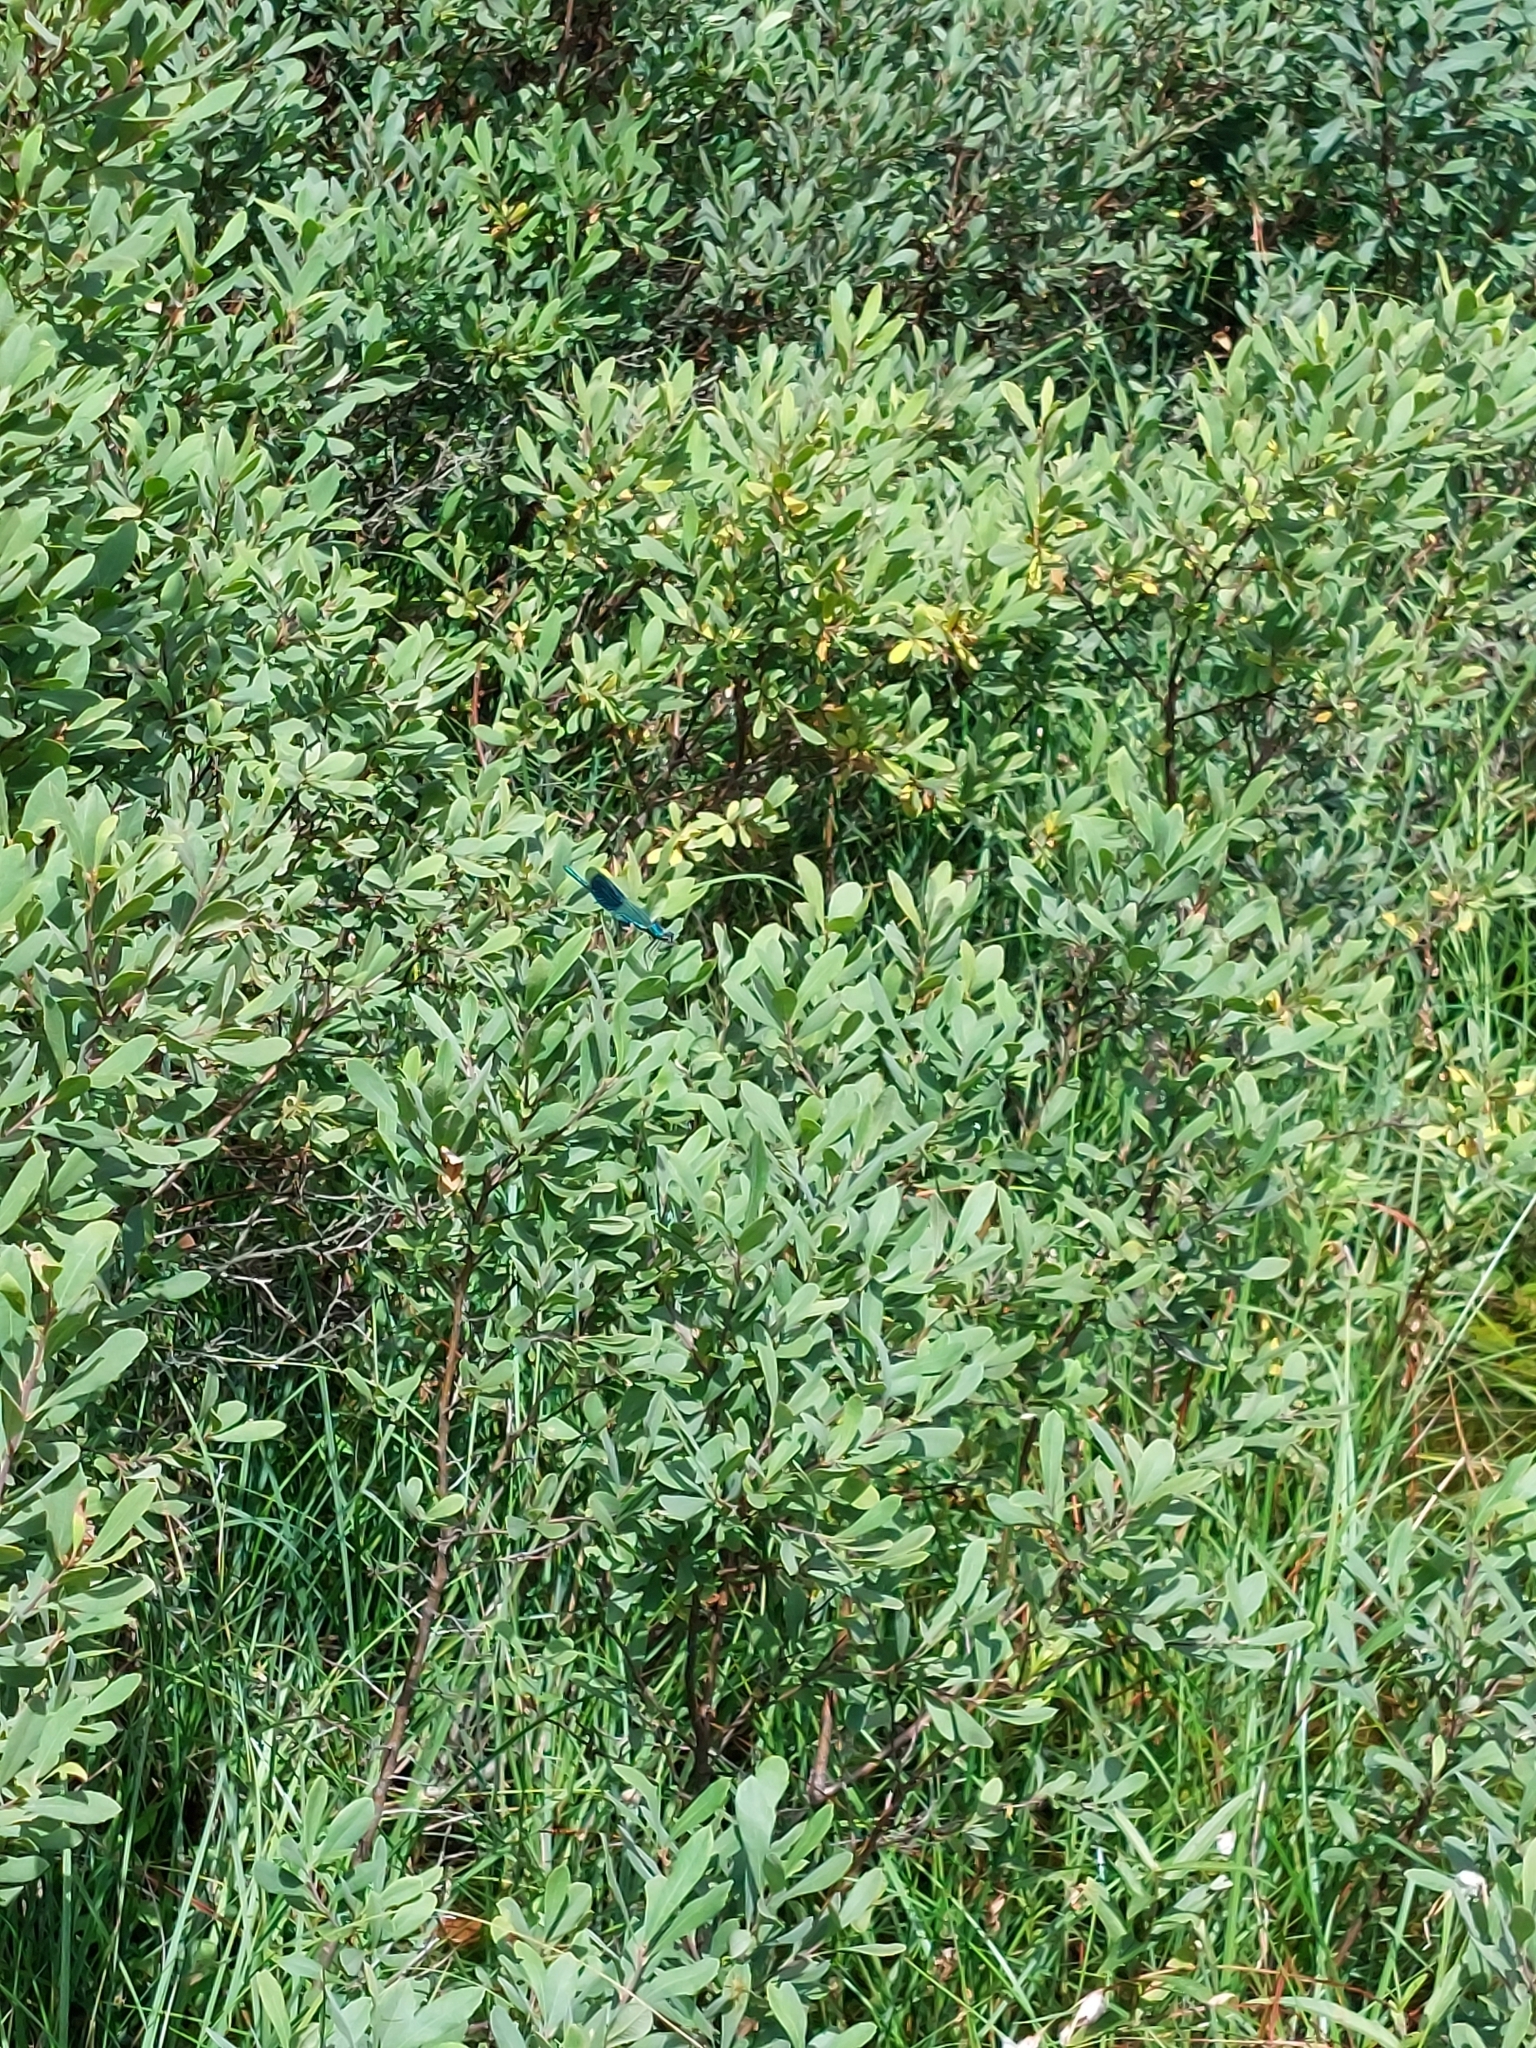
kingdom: Animalia
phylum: Arthropoda
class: Insecta
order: Odonata
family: Calopterygidae
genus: Calopteryx
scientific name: Calopteryx splendens
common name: Banded demoiselle
